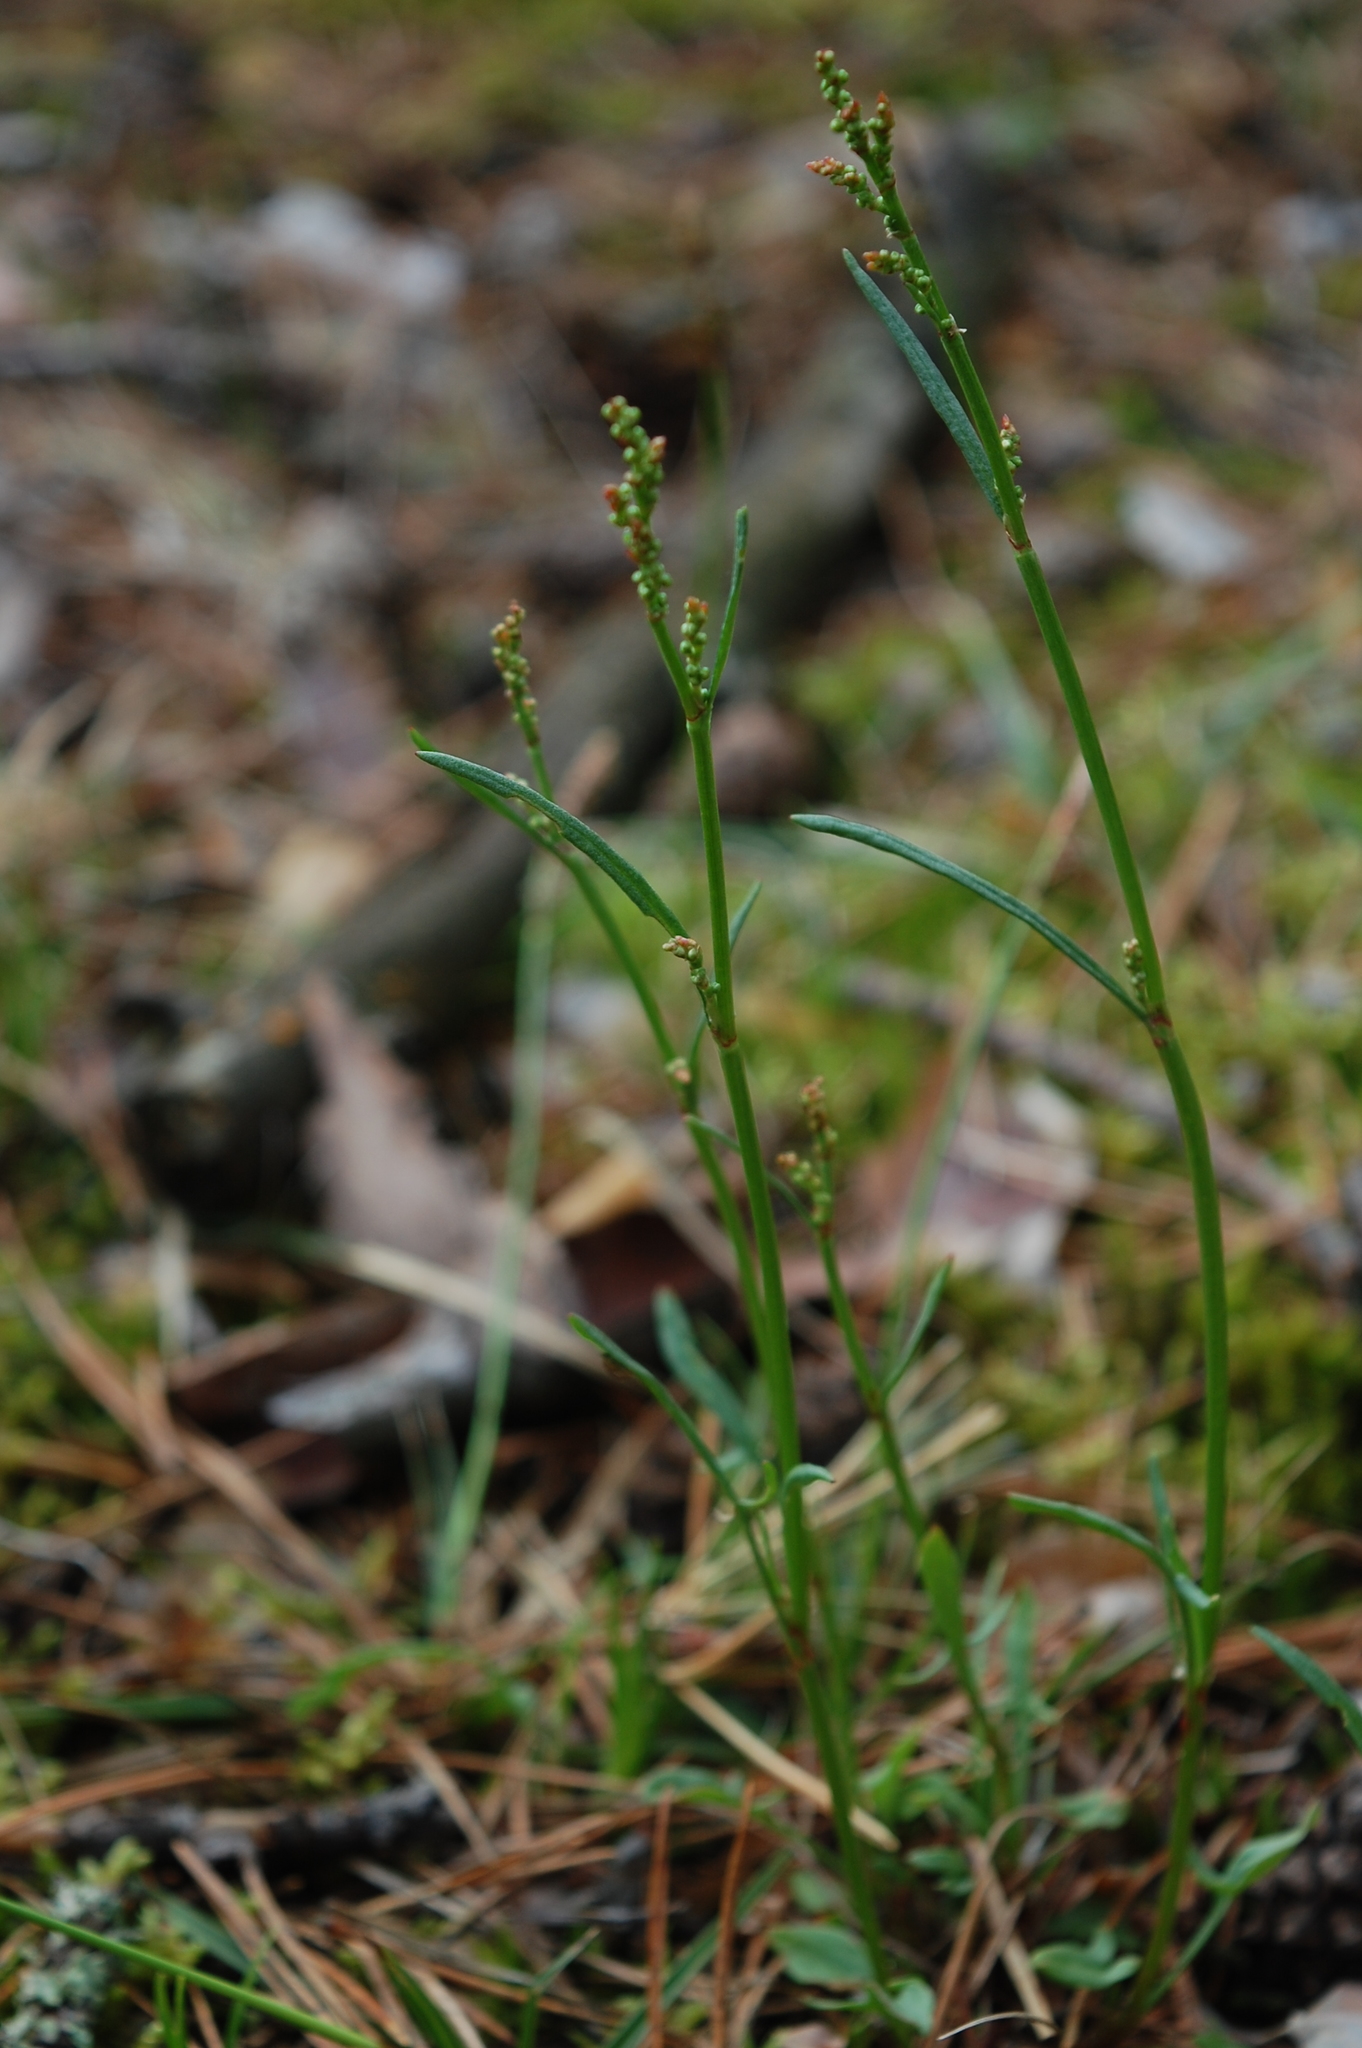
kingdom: Plantae
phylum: Tracheophyta
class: Magnoliopsida
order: Caryophyllales
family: Polygonaceae
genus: Rumex
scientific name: Rumex acetosella
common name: Common sheep sorrel
